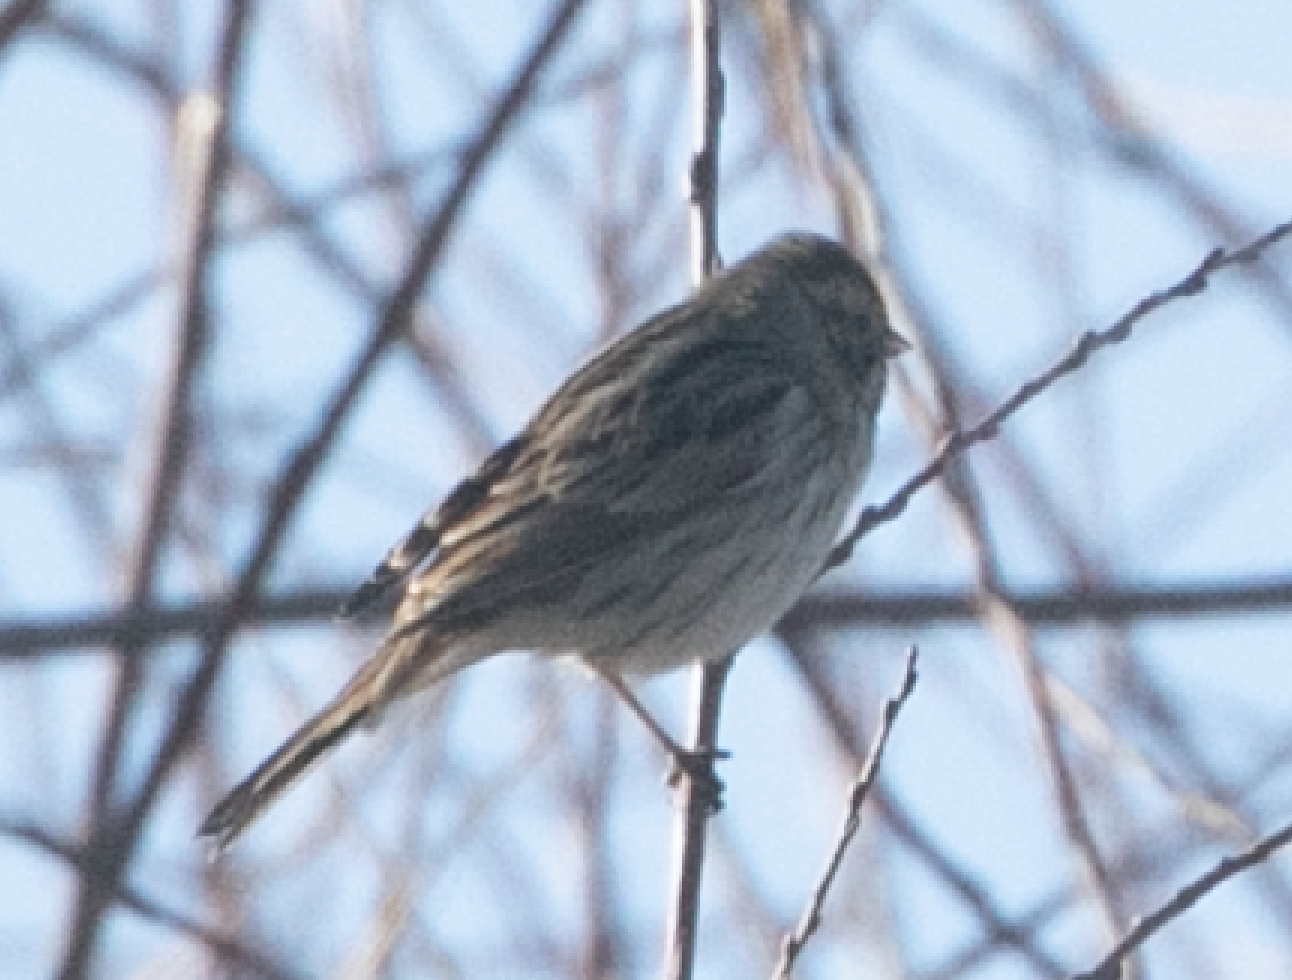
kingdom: Animalia
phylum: Chordata
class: Aves
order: Passeriformes
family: Emberizidae
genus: Emberiza
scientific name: Emberiza schoeniclus
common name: Reed bunting
